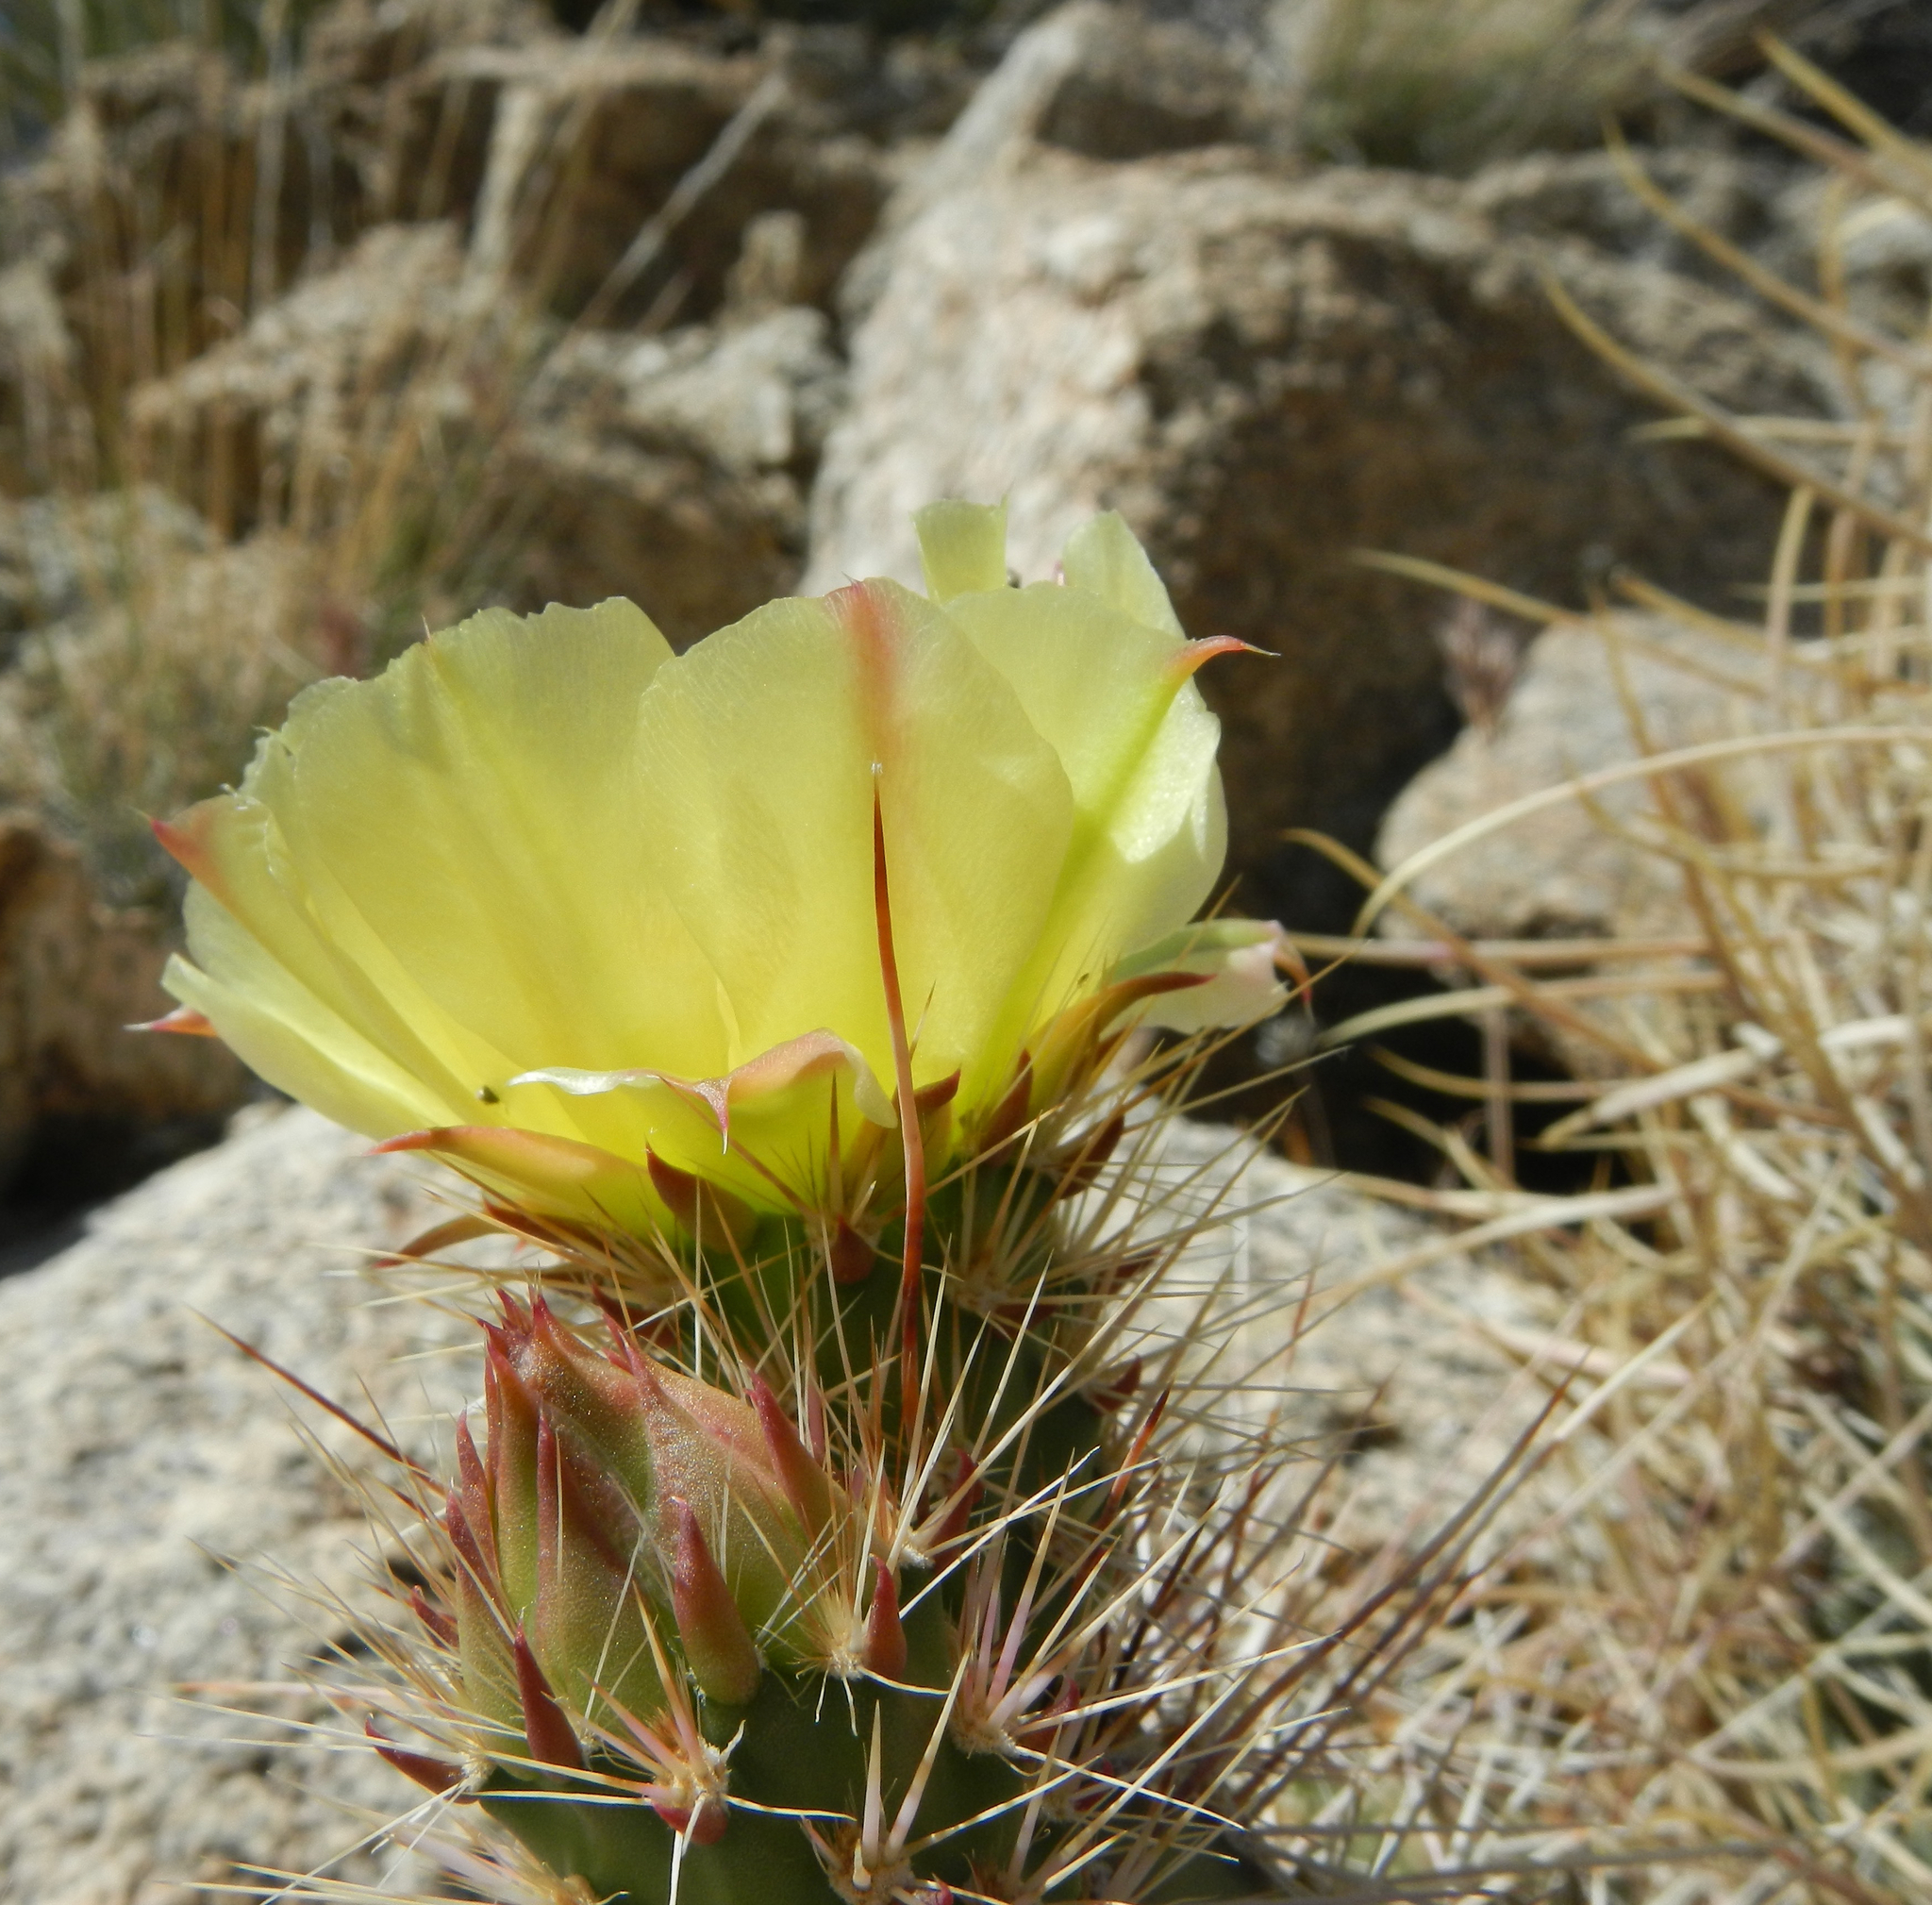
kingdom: Plantae
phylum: Tracheophyta
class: Magnoliopsida
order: Caryophyllales
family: Cactaceae
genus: Ferocactus
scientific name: Ferocactus cylindraceus
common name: California barrel cactus
